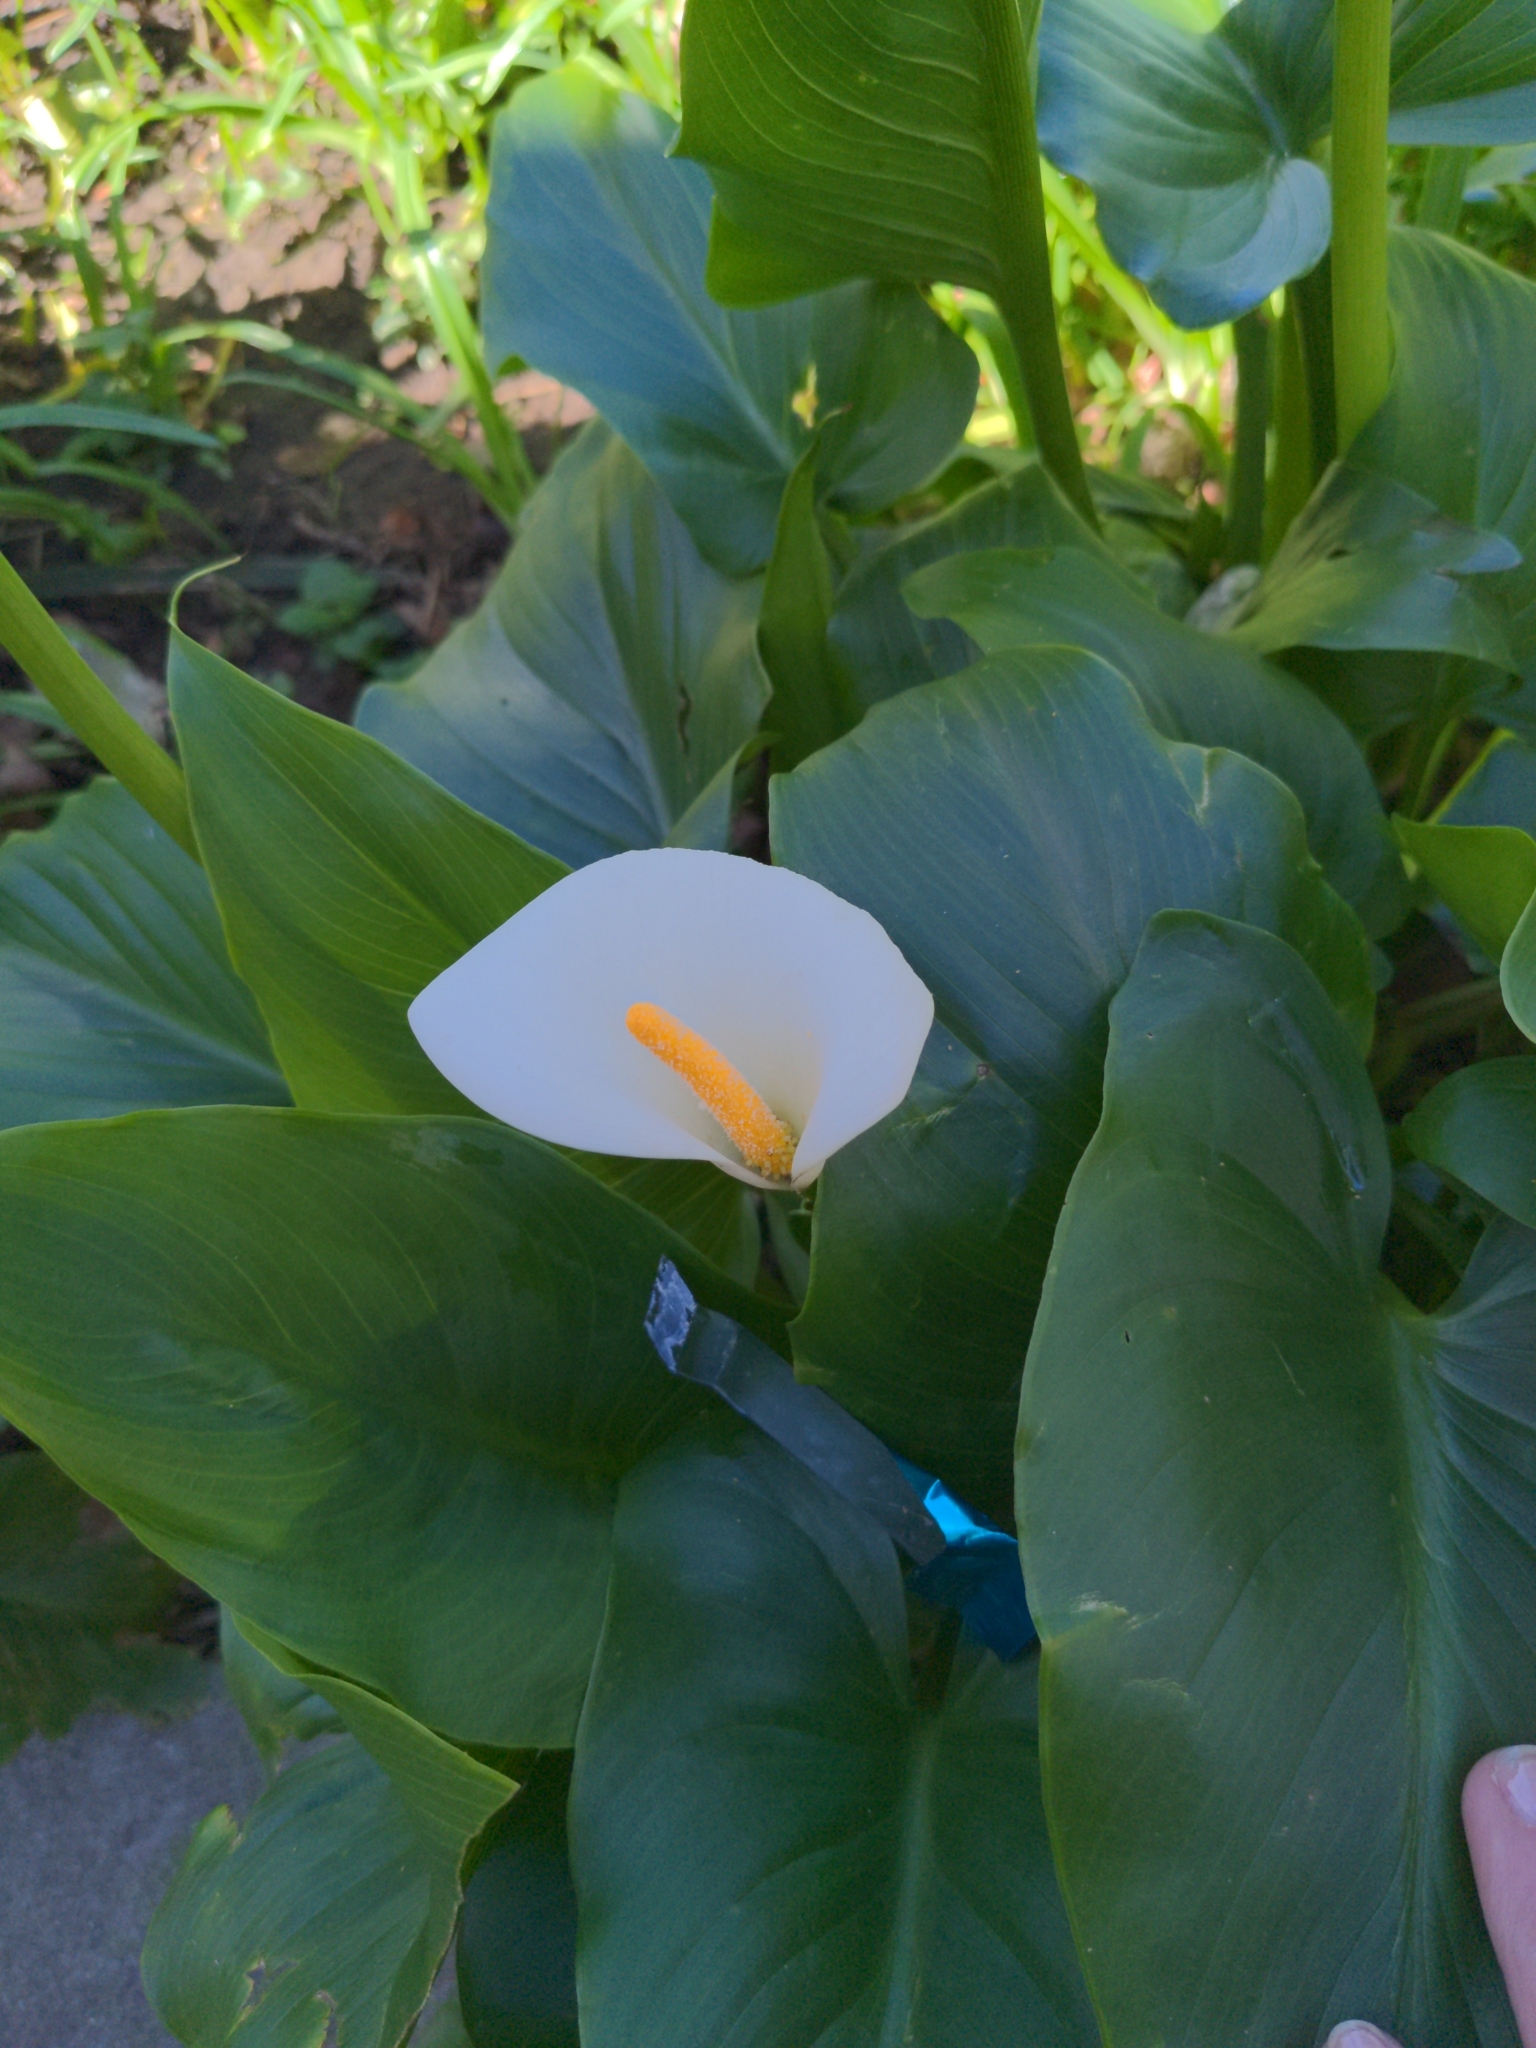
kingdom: Plantae
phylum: Tracheophyta
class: Liliopsida
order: Alismatales
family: Araceae
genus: Zantedeschia
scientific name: Zantedeschia aethiopica
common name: Altar-lily
